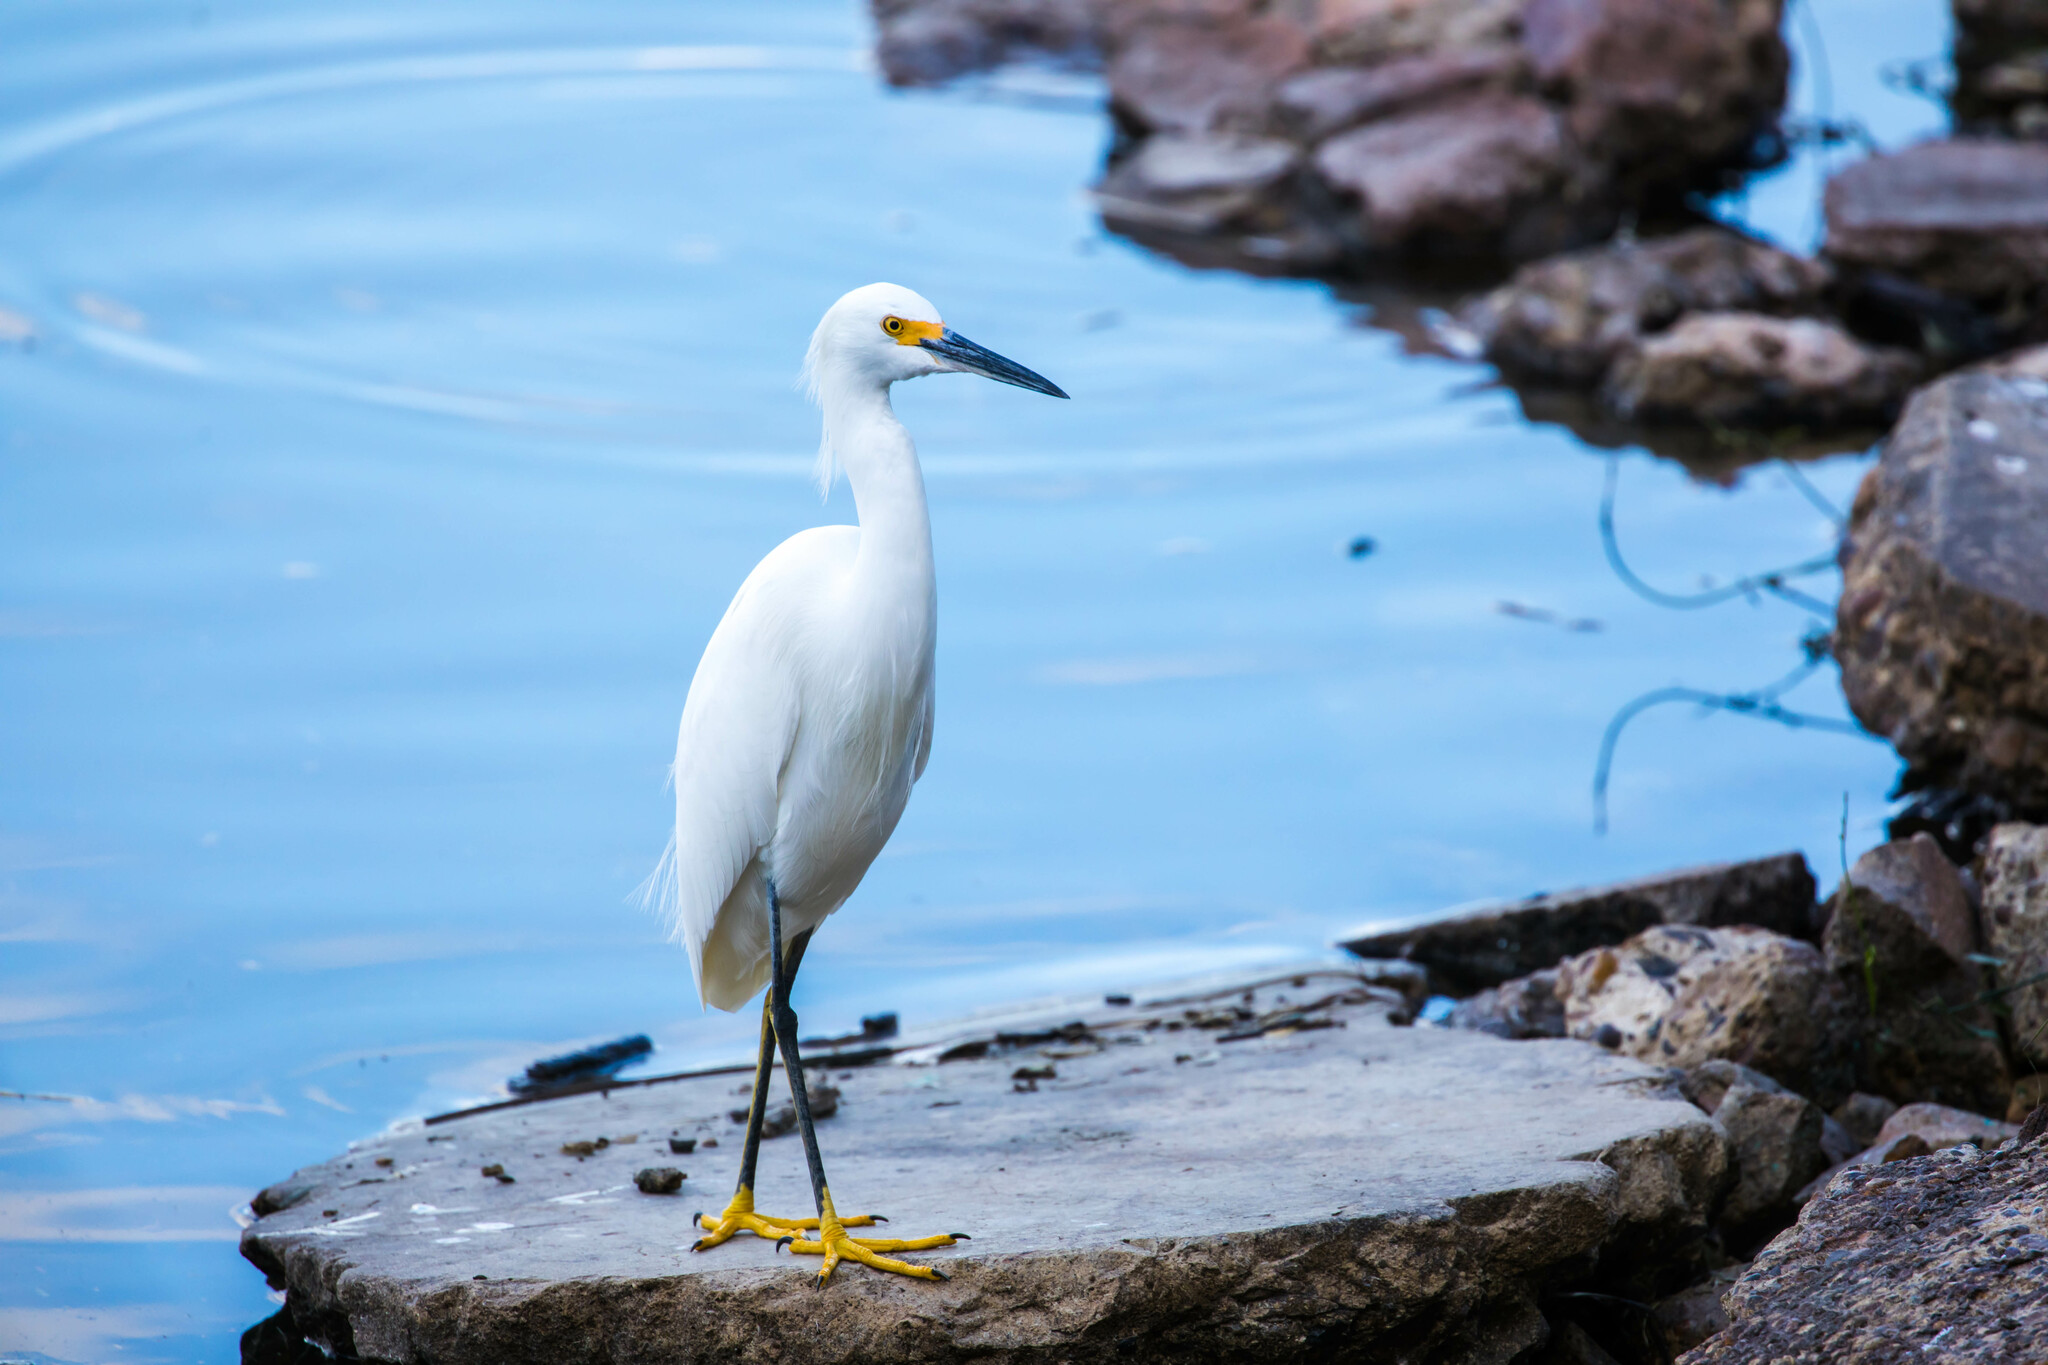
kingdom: Animalia
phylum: Chordata
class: Aves
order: Pelecaniformes
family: Ardeidae
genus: Egretta
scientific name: Egretta thula
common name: Snowy egret
